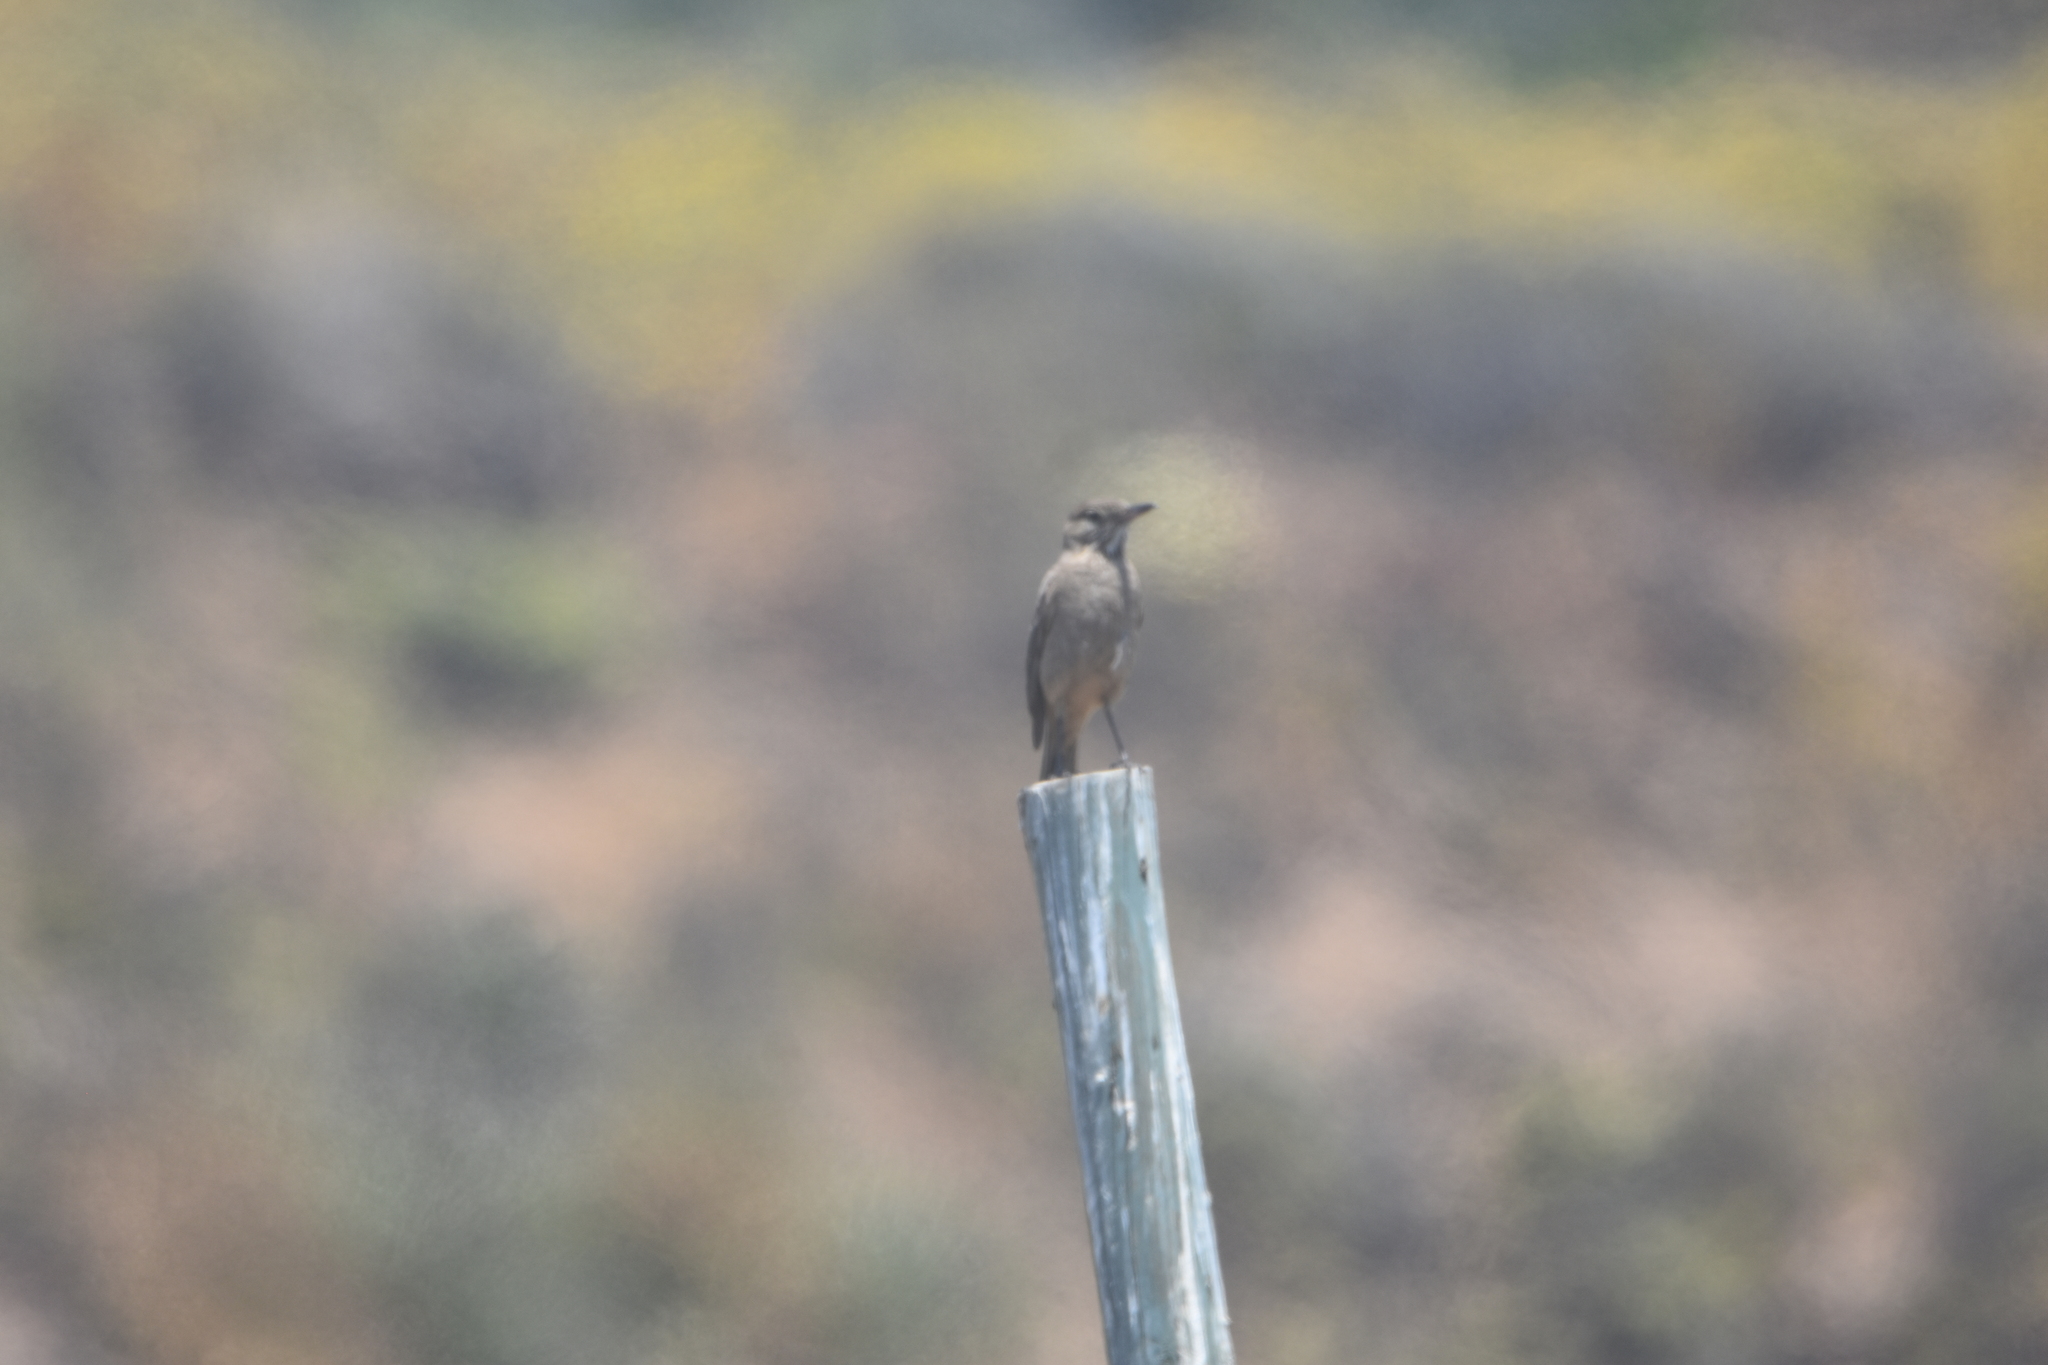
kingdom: Animalia
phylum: Chordata
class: Aves
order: Passeriformes
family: Tyrannidae
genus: Agriornis
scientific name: Agriornis lividus
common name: Great shrike-tyrant
